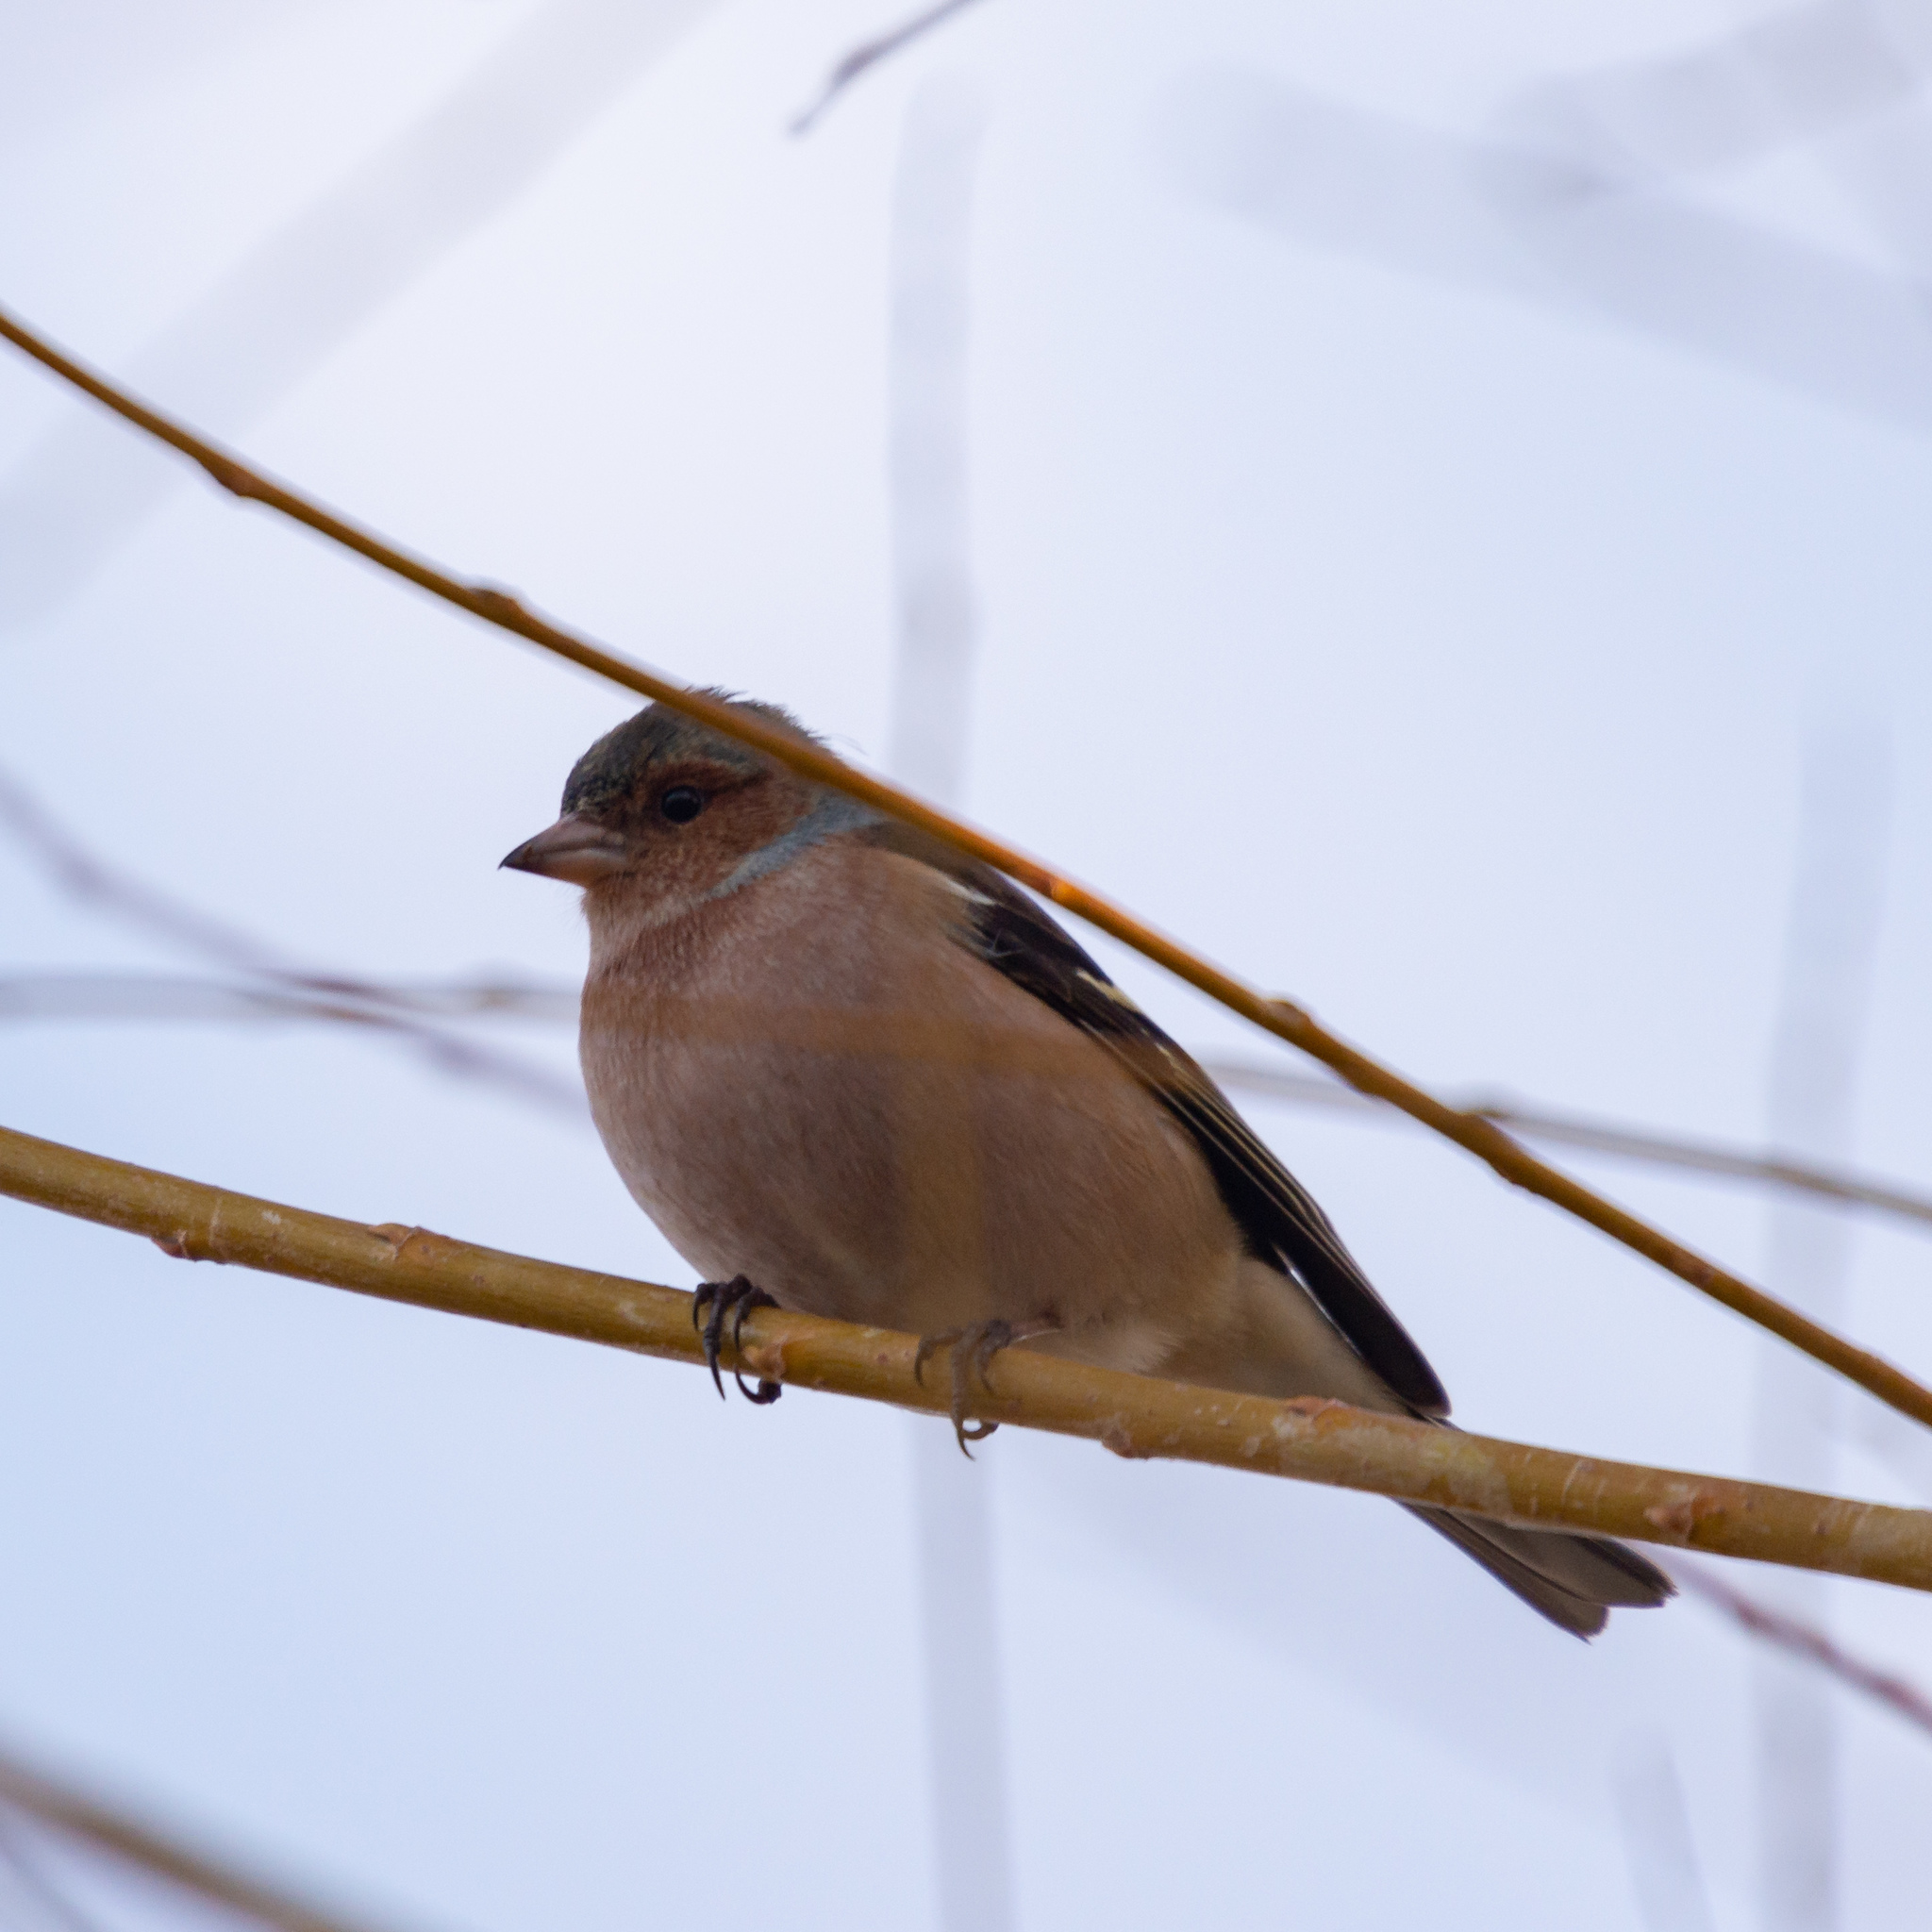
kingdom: Animalia
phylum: Chordata
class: Aves
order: Passeriformes
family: Fringillidae
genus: Fringilla
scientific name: Fringilla coelebs
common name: Common chaffinch
